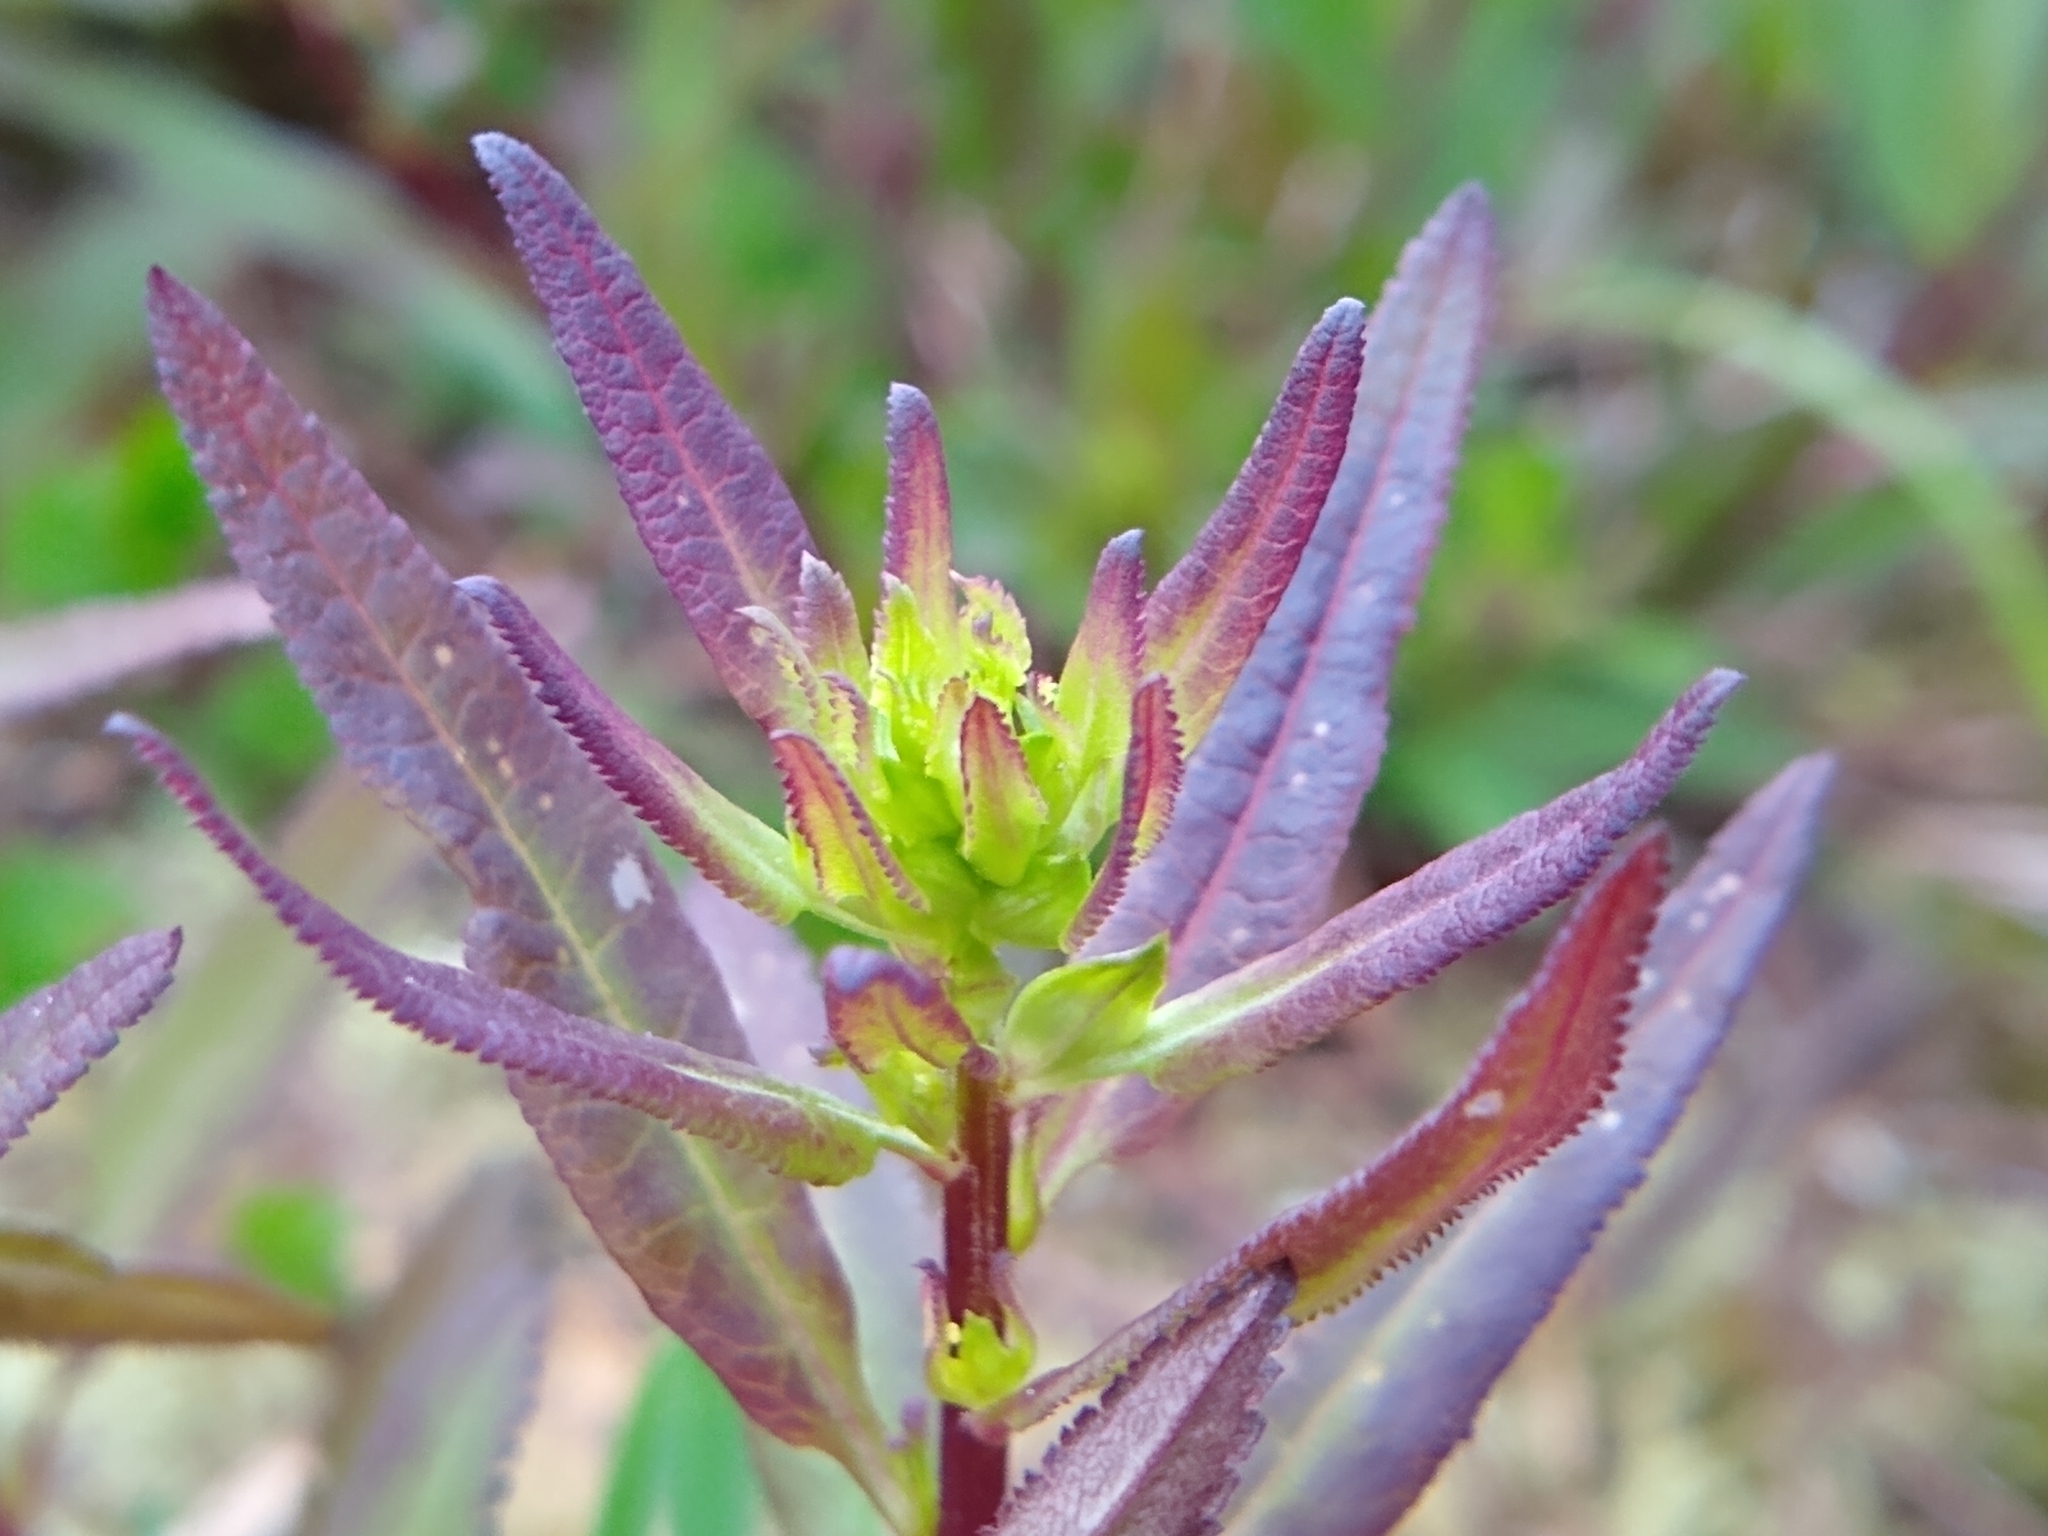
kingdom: Plantae
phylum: Tracheophyta
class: Magnoliopsida
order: Lamiales
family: Orobanchaceae
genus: Pedicularis
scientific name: Pedicularis racemosa
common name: Leafy lousewort
